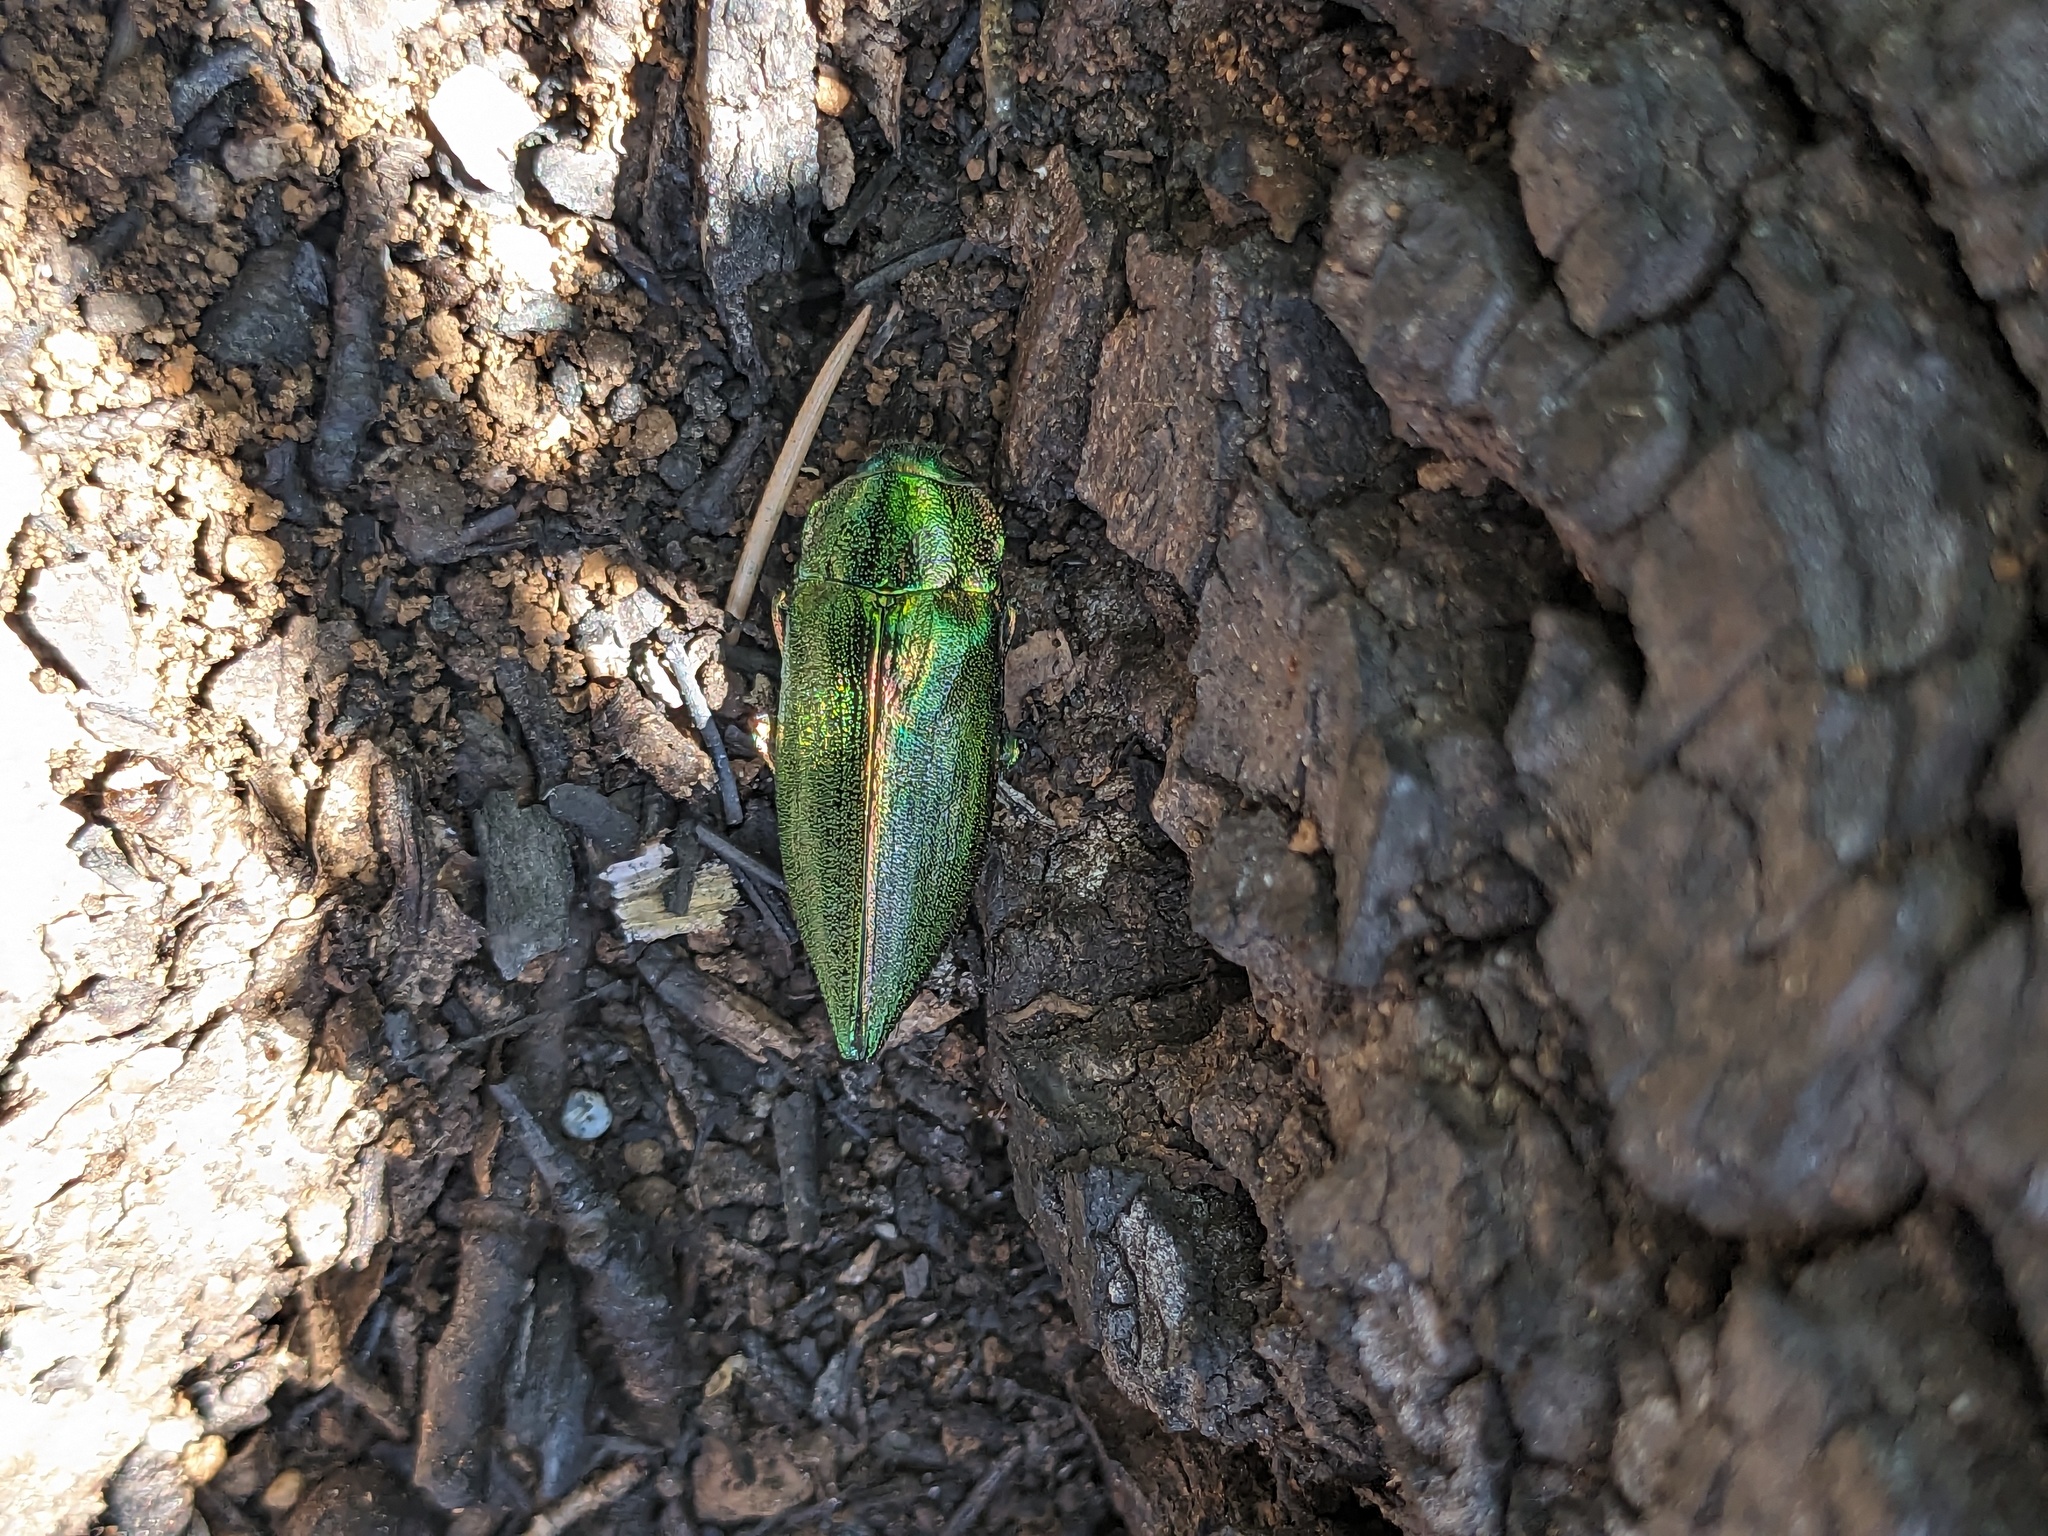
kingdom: Animalia
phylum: Arthropoda
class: Insecta
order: Coleoptera
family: Buprestidae
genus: Latipalpis
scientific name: Latipalpis plana
